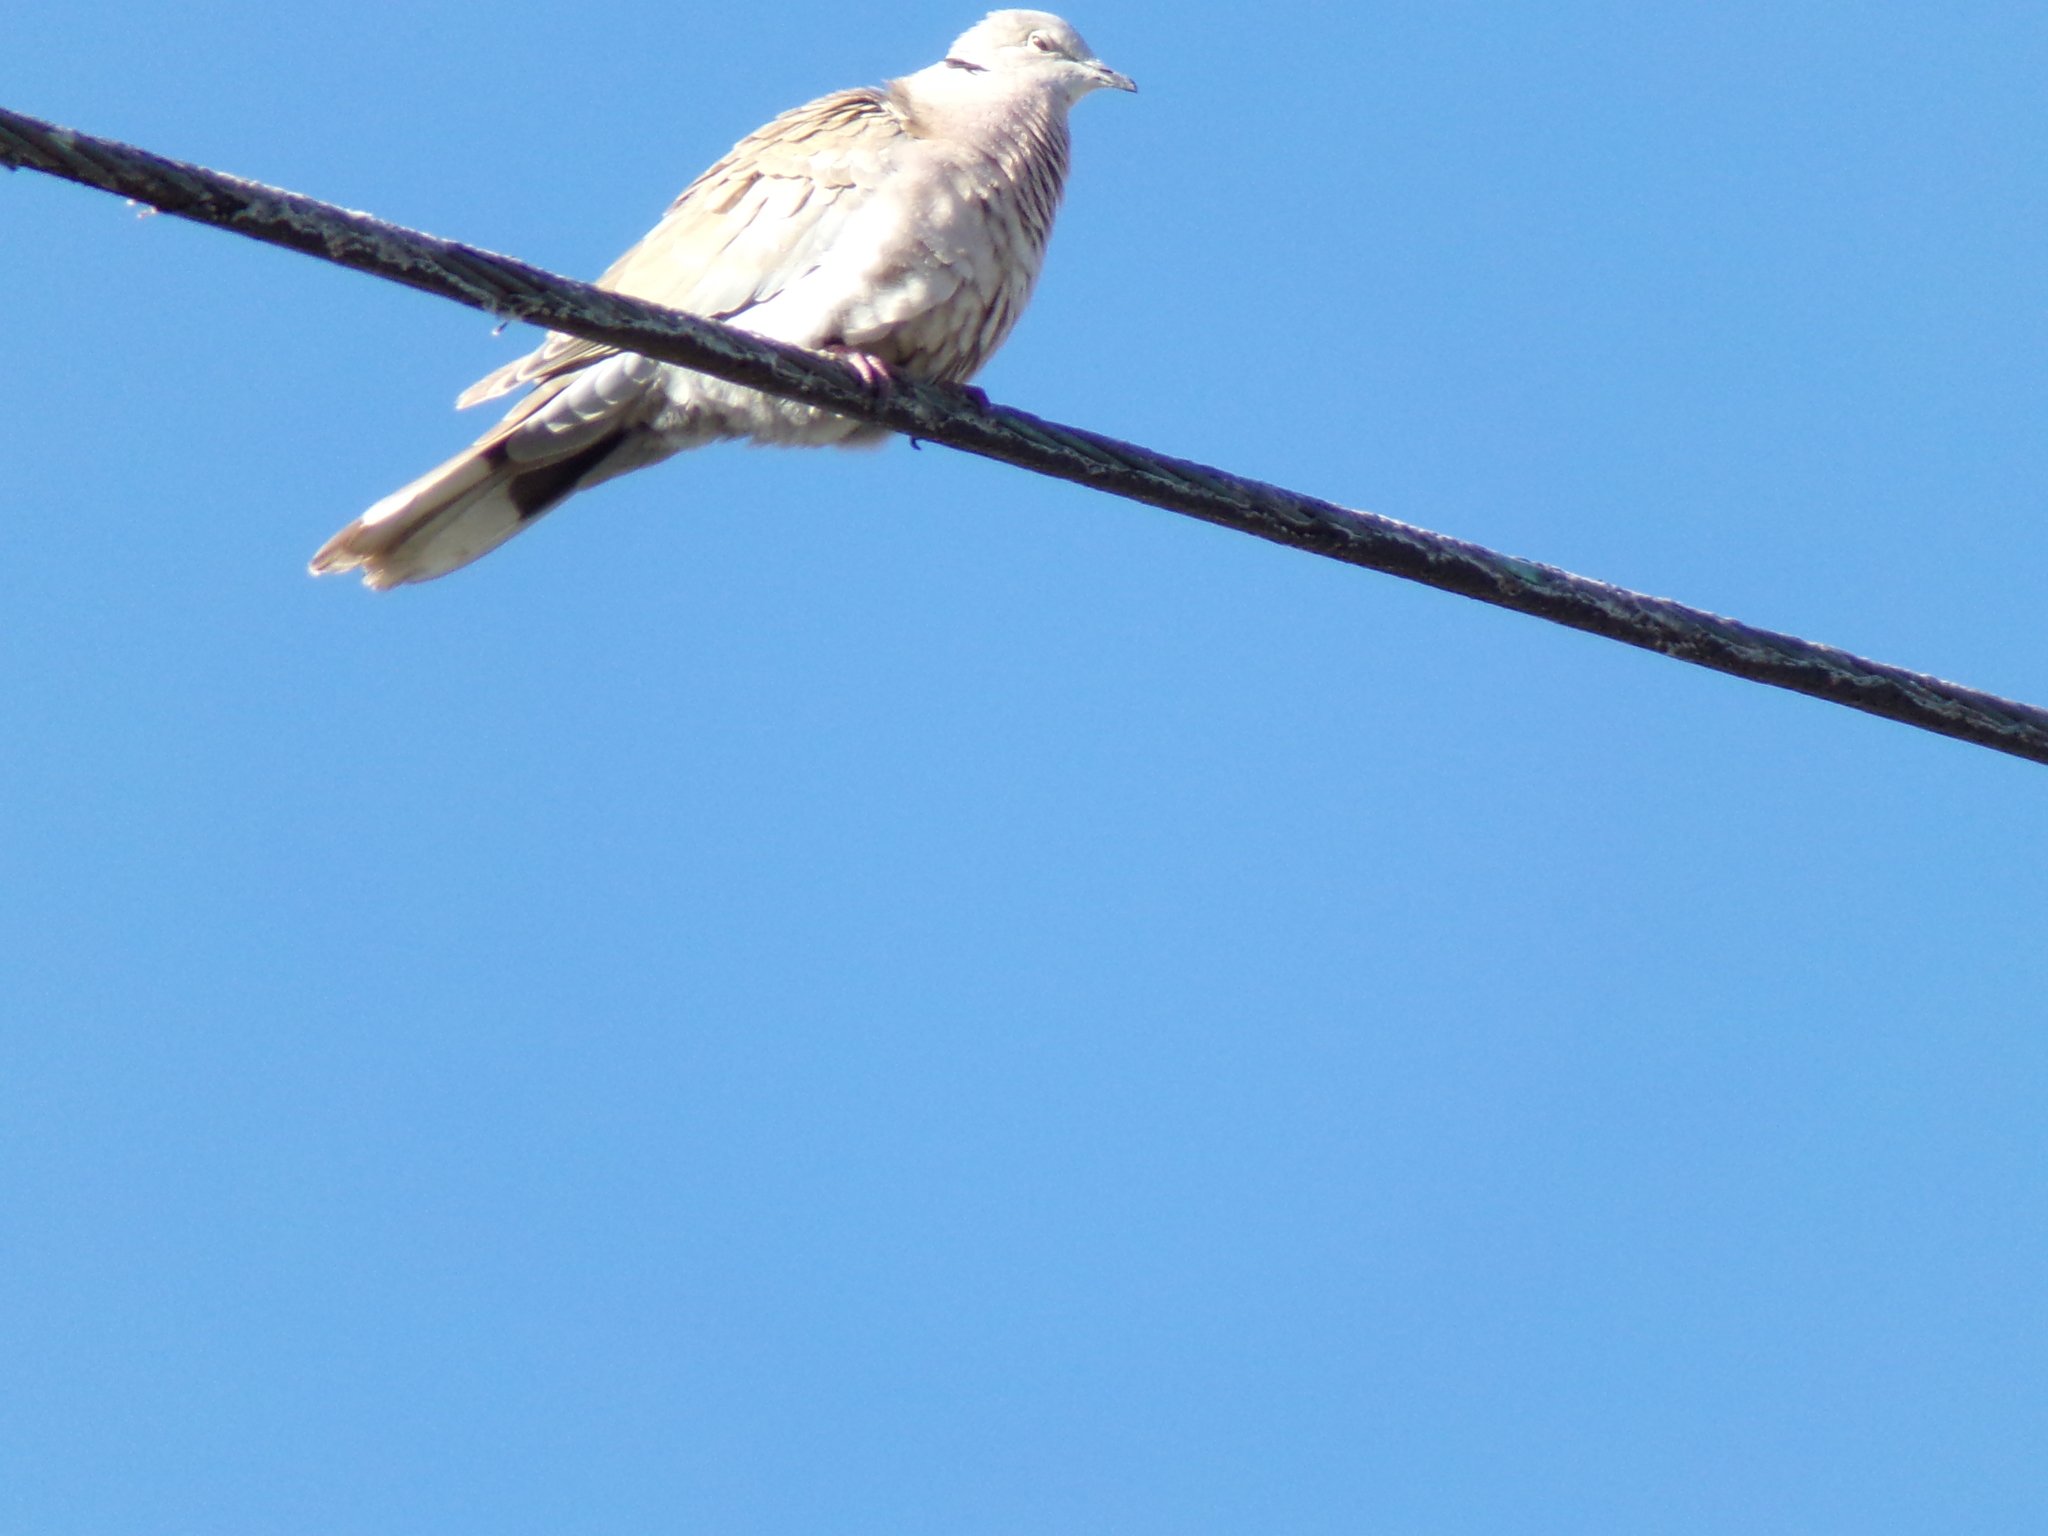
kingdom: Animalia
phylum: Chordata
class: Aves
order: Columbiformes
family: Columbidae
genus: Streptopelia
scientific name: Streptopelia decaocto
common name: Eurasian collared dove
